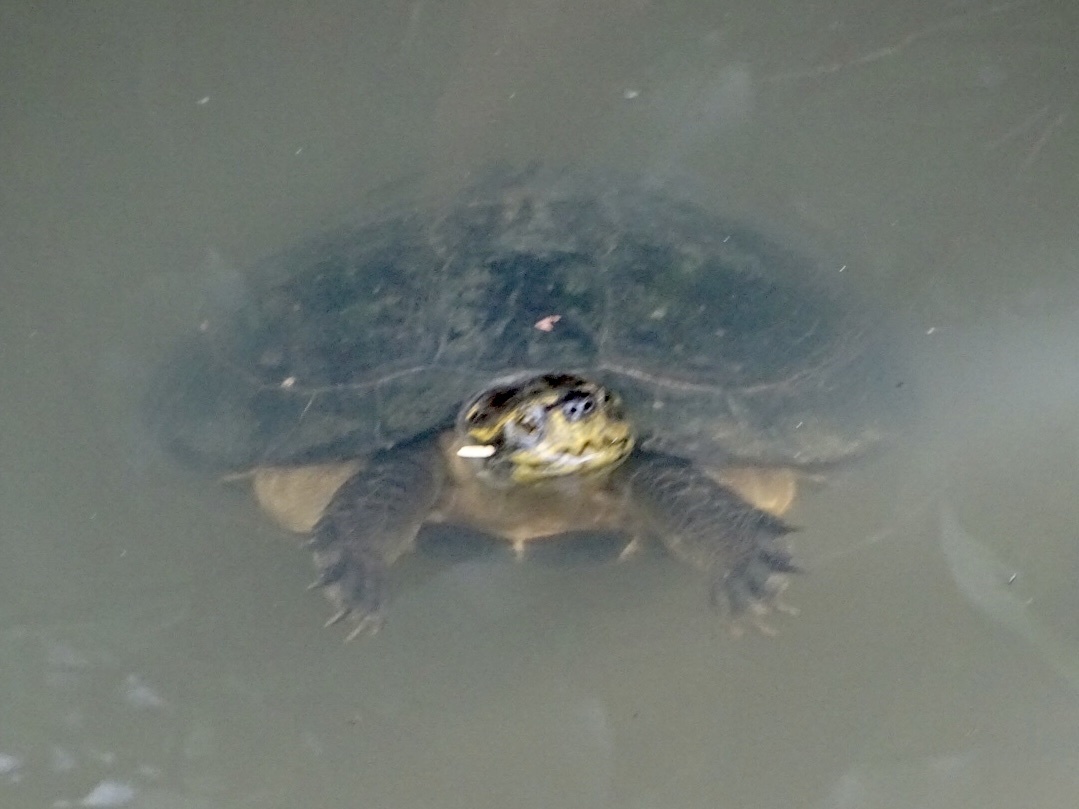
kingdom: Animalia
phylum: Chordata
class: Testudines
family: Geoemydidae
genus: Heosemys
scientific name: Heosemys annandalii
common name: Yellow-headed temple turtle
